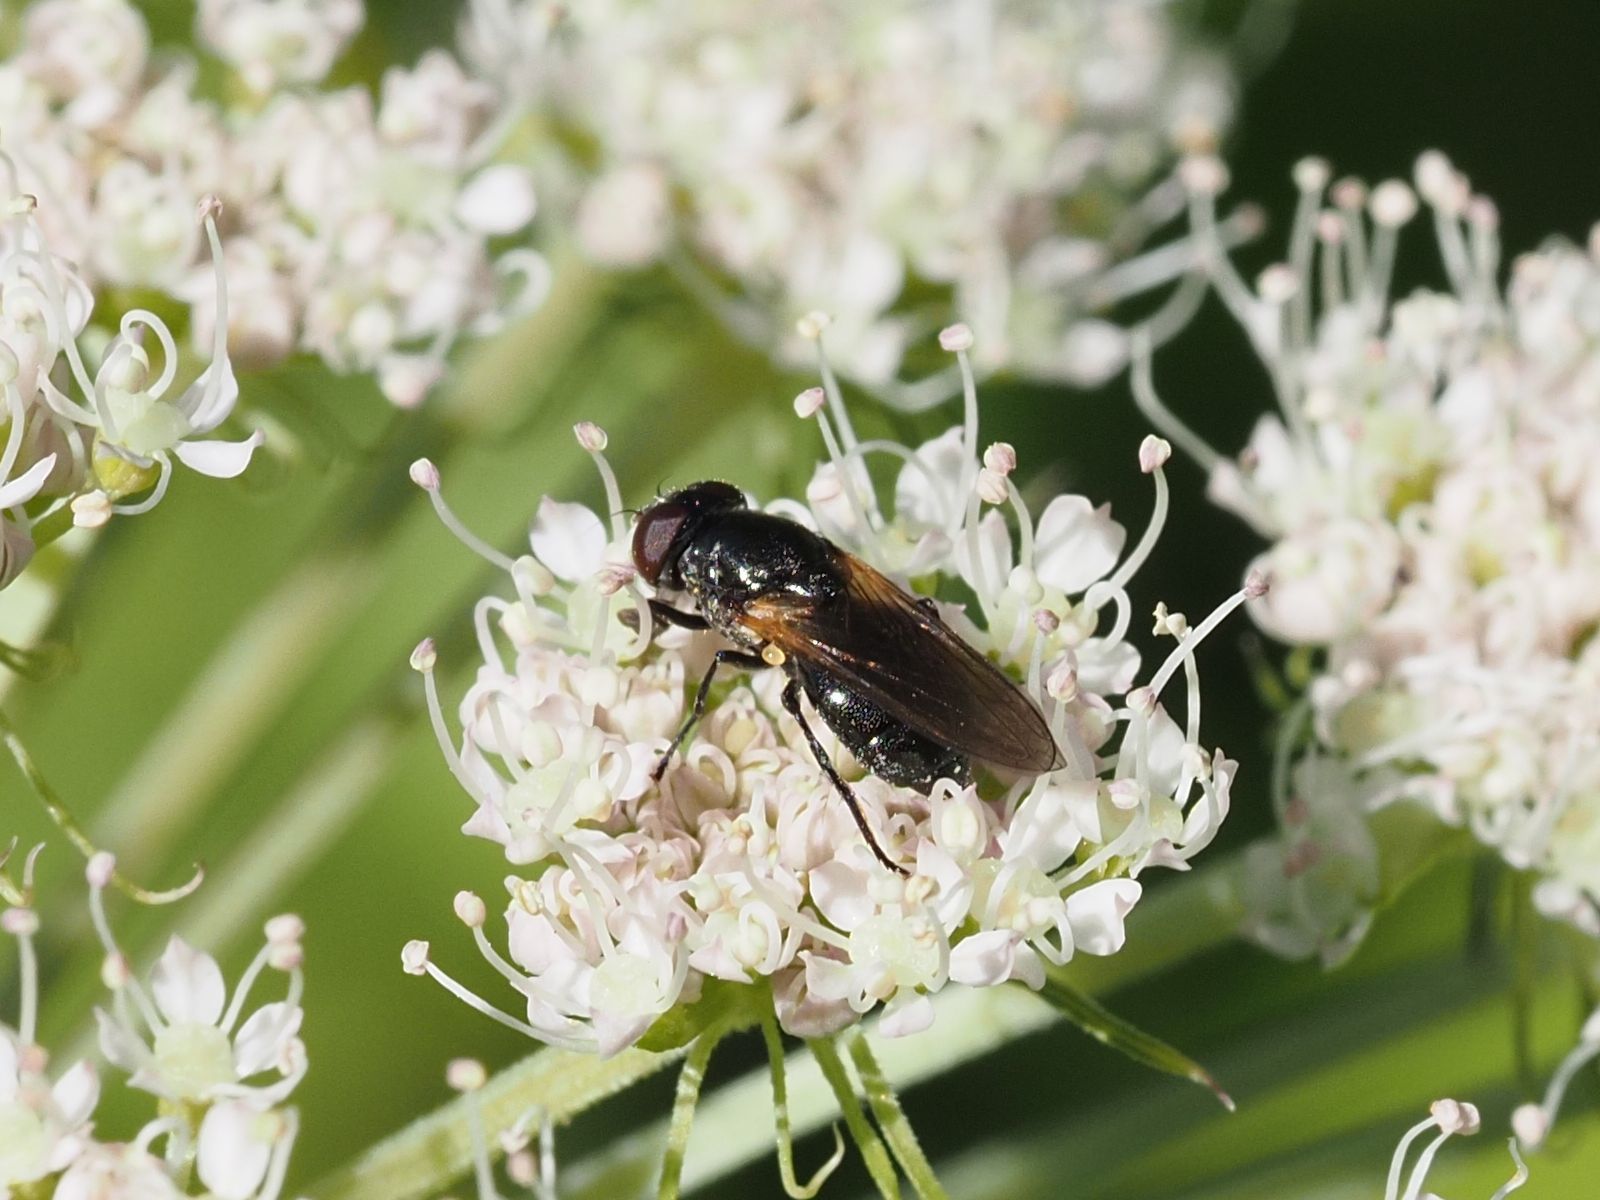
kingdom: Animalia
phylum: Arthropoda
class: Insecta
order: Diptera
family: Syrphidae
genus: Cheilosia
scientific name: Cheilosia impressa
